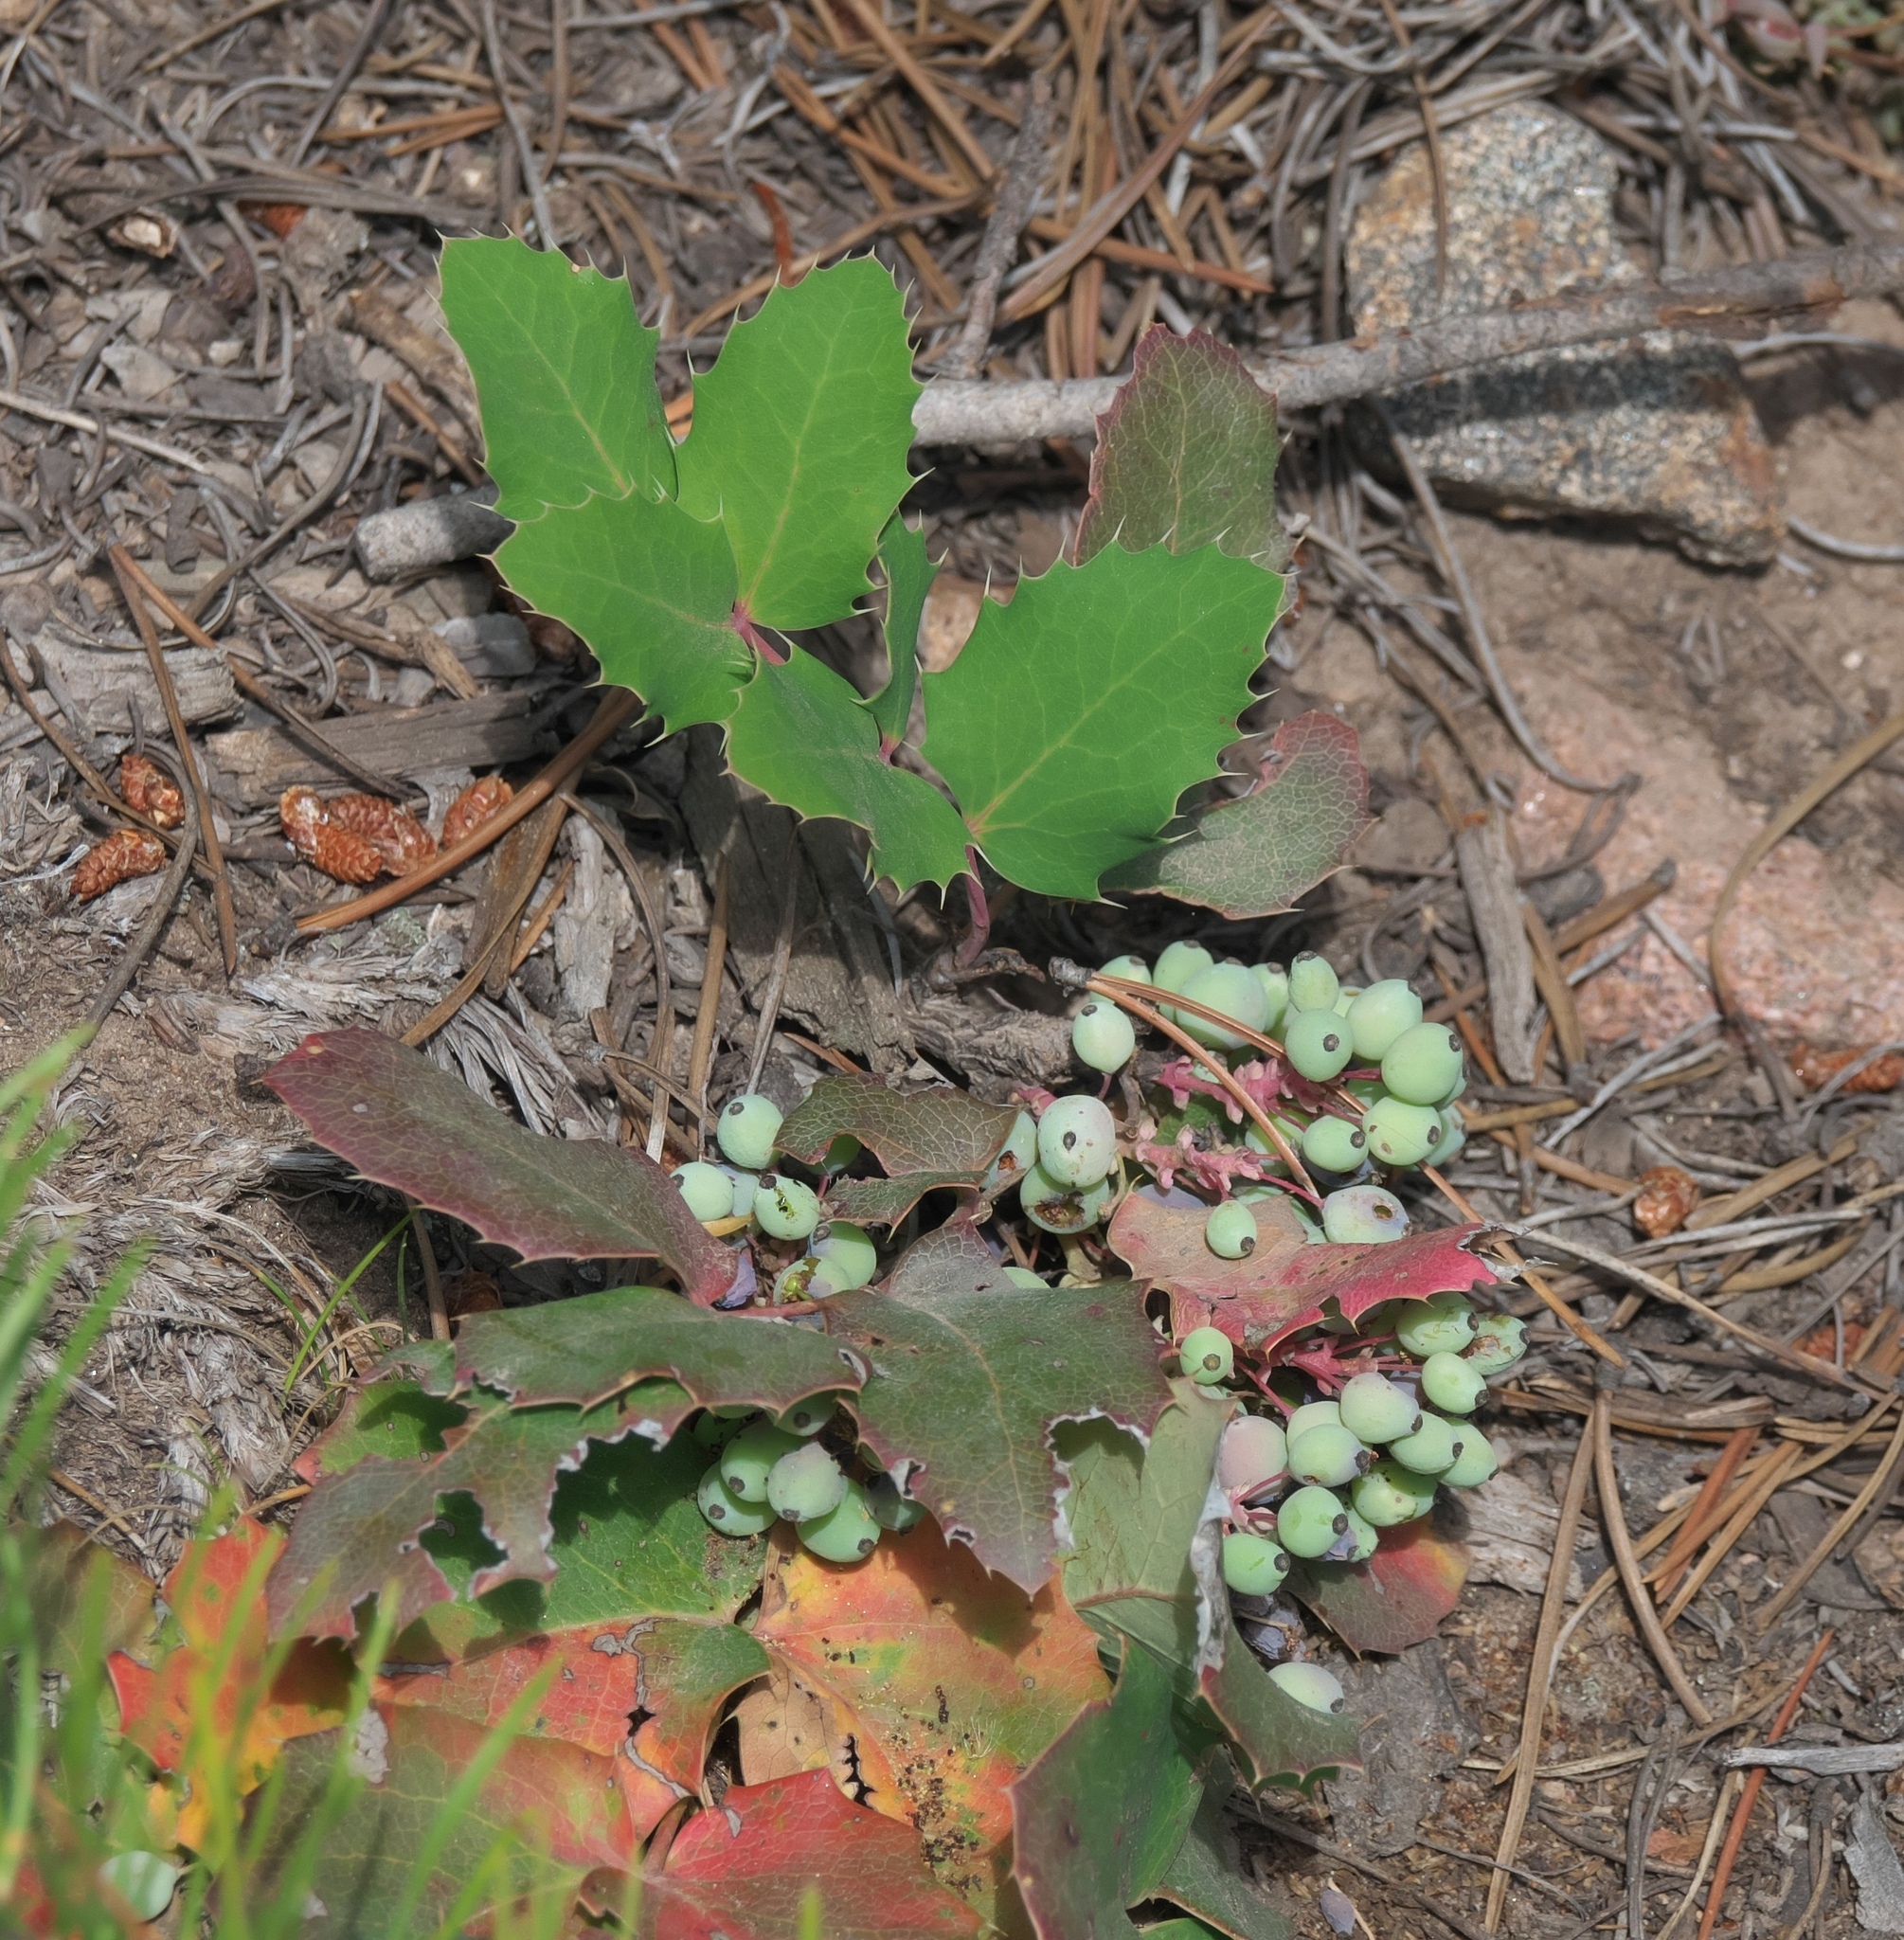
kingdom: Plantae
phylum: Tracheophyta
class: Magnoliopsida
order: Ranunculales
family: Berberidaceae
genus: Mahonia
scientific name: Mahonia repens
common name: Creeping oregon-grape
